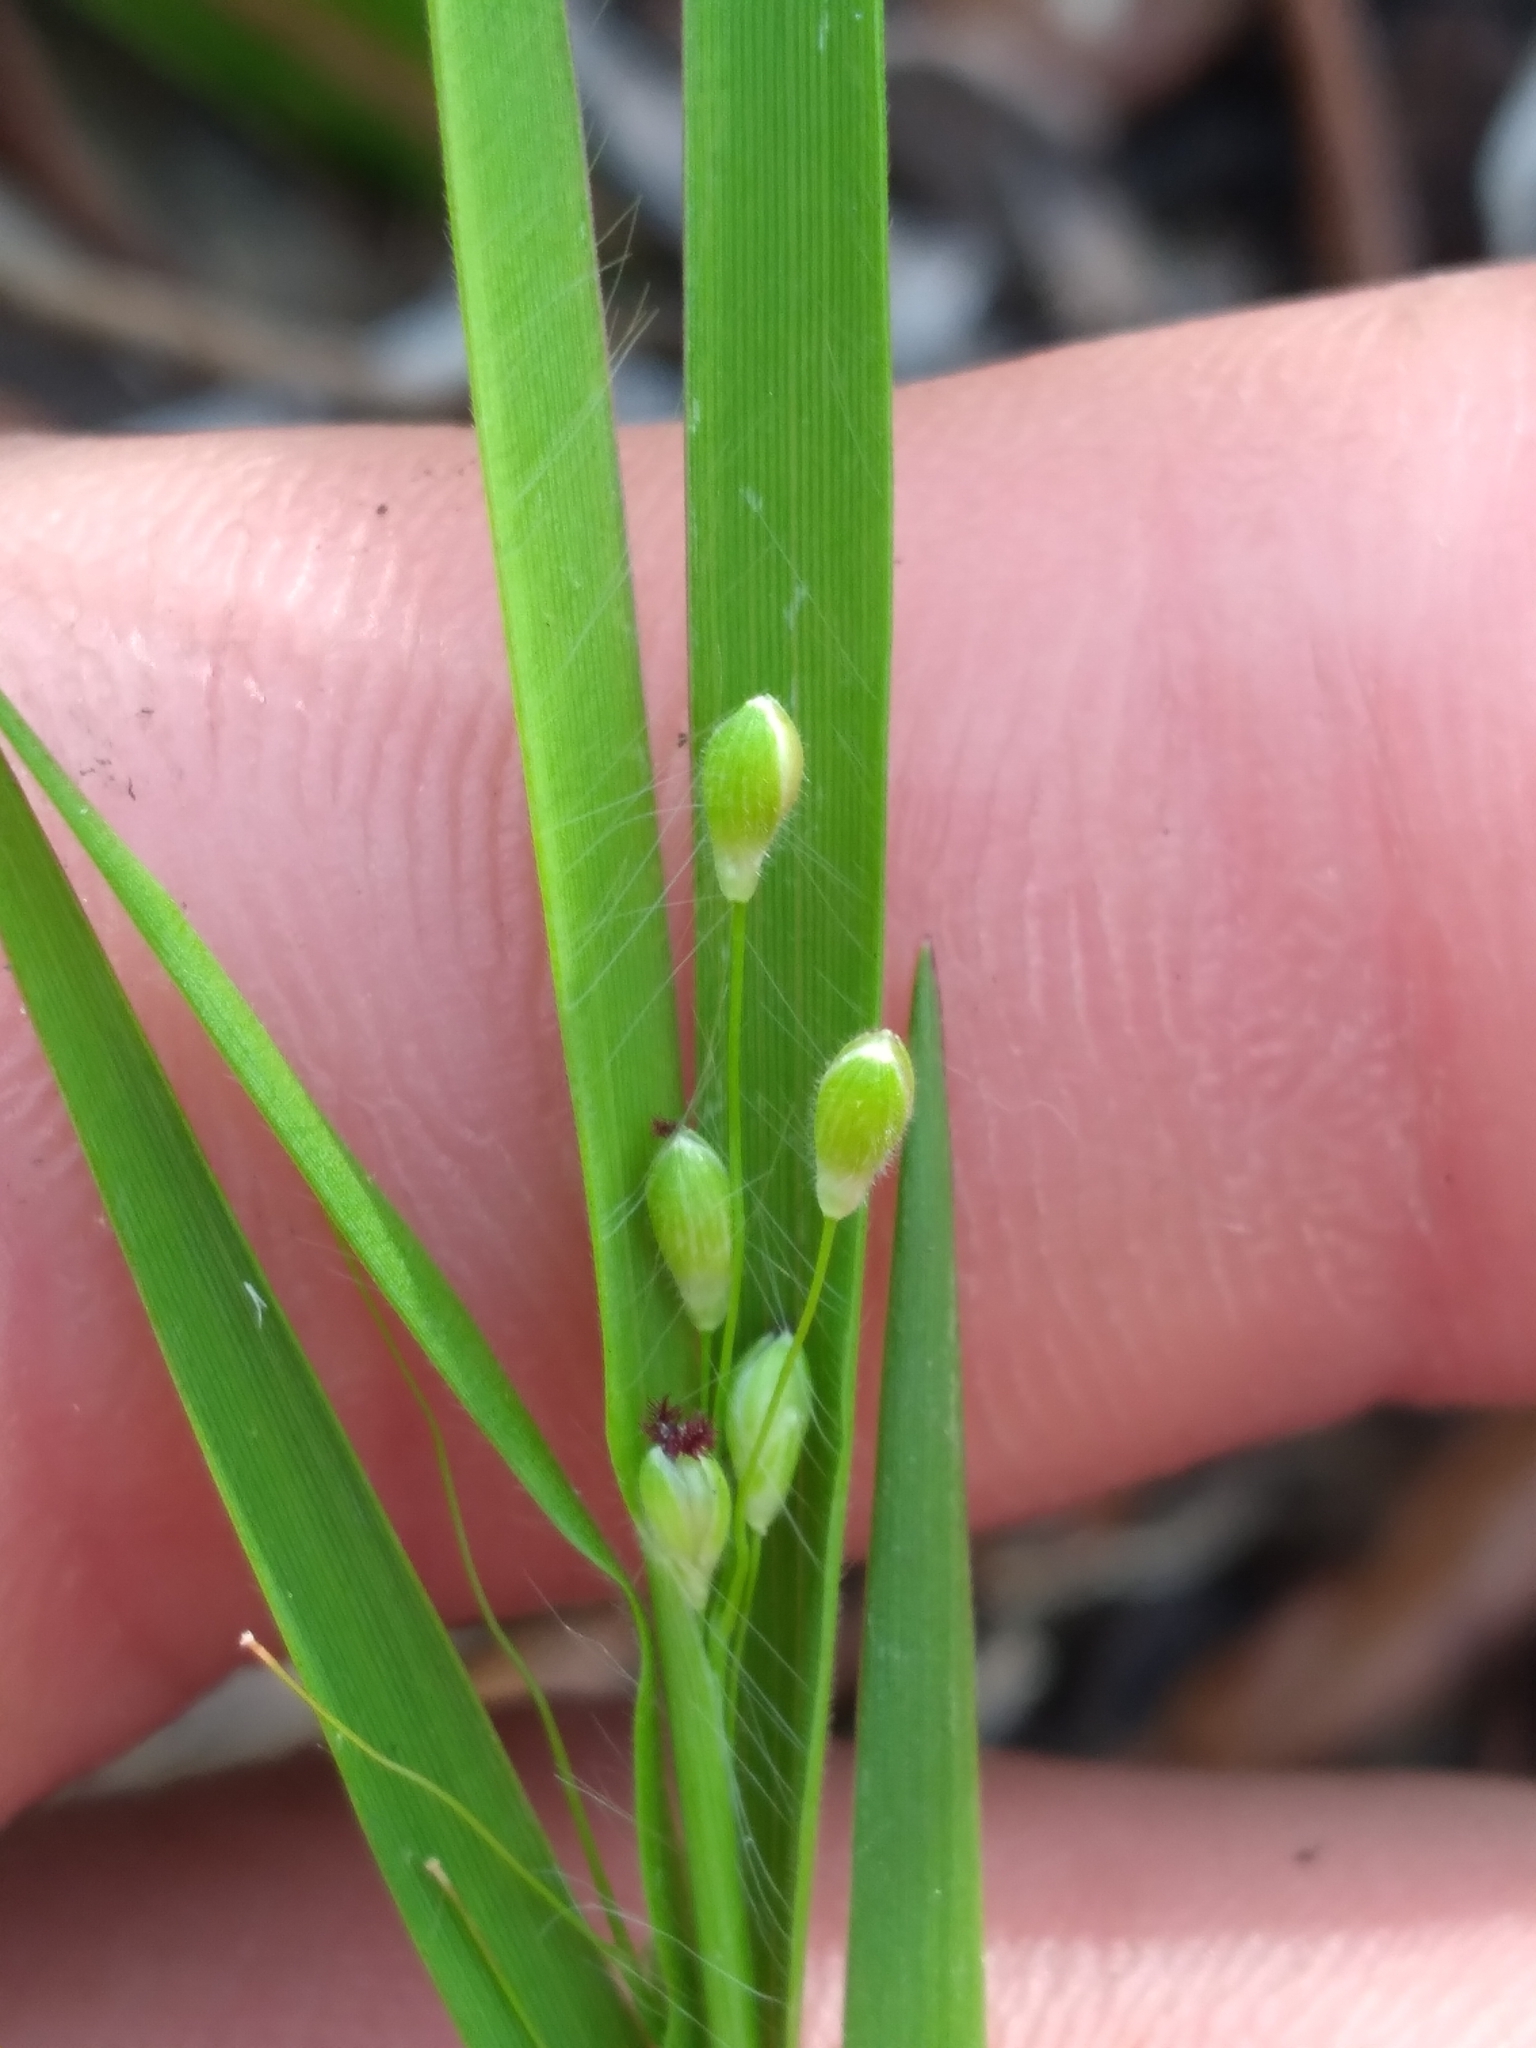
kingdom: Plantae
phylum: Tracheophyta
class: Liliopsida
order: Poales
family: Poaceae
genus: Dichanthelium
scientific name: Dichanthelium malacon
